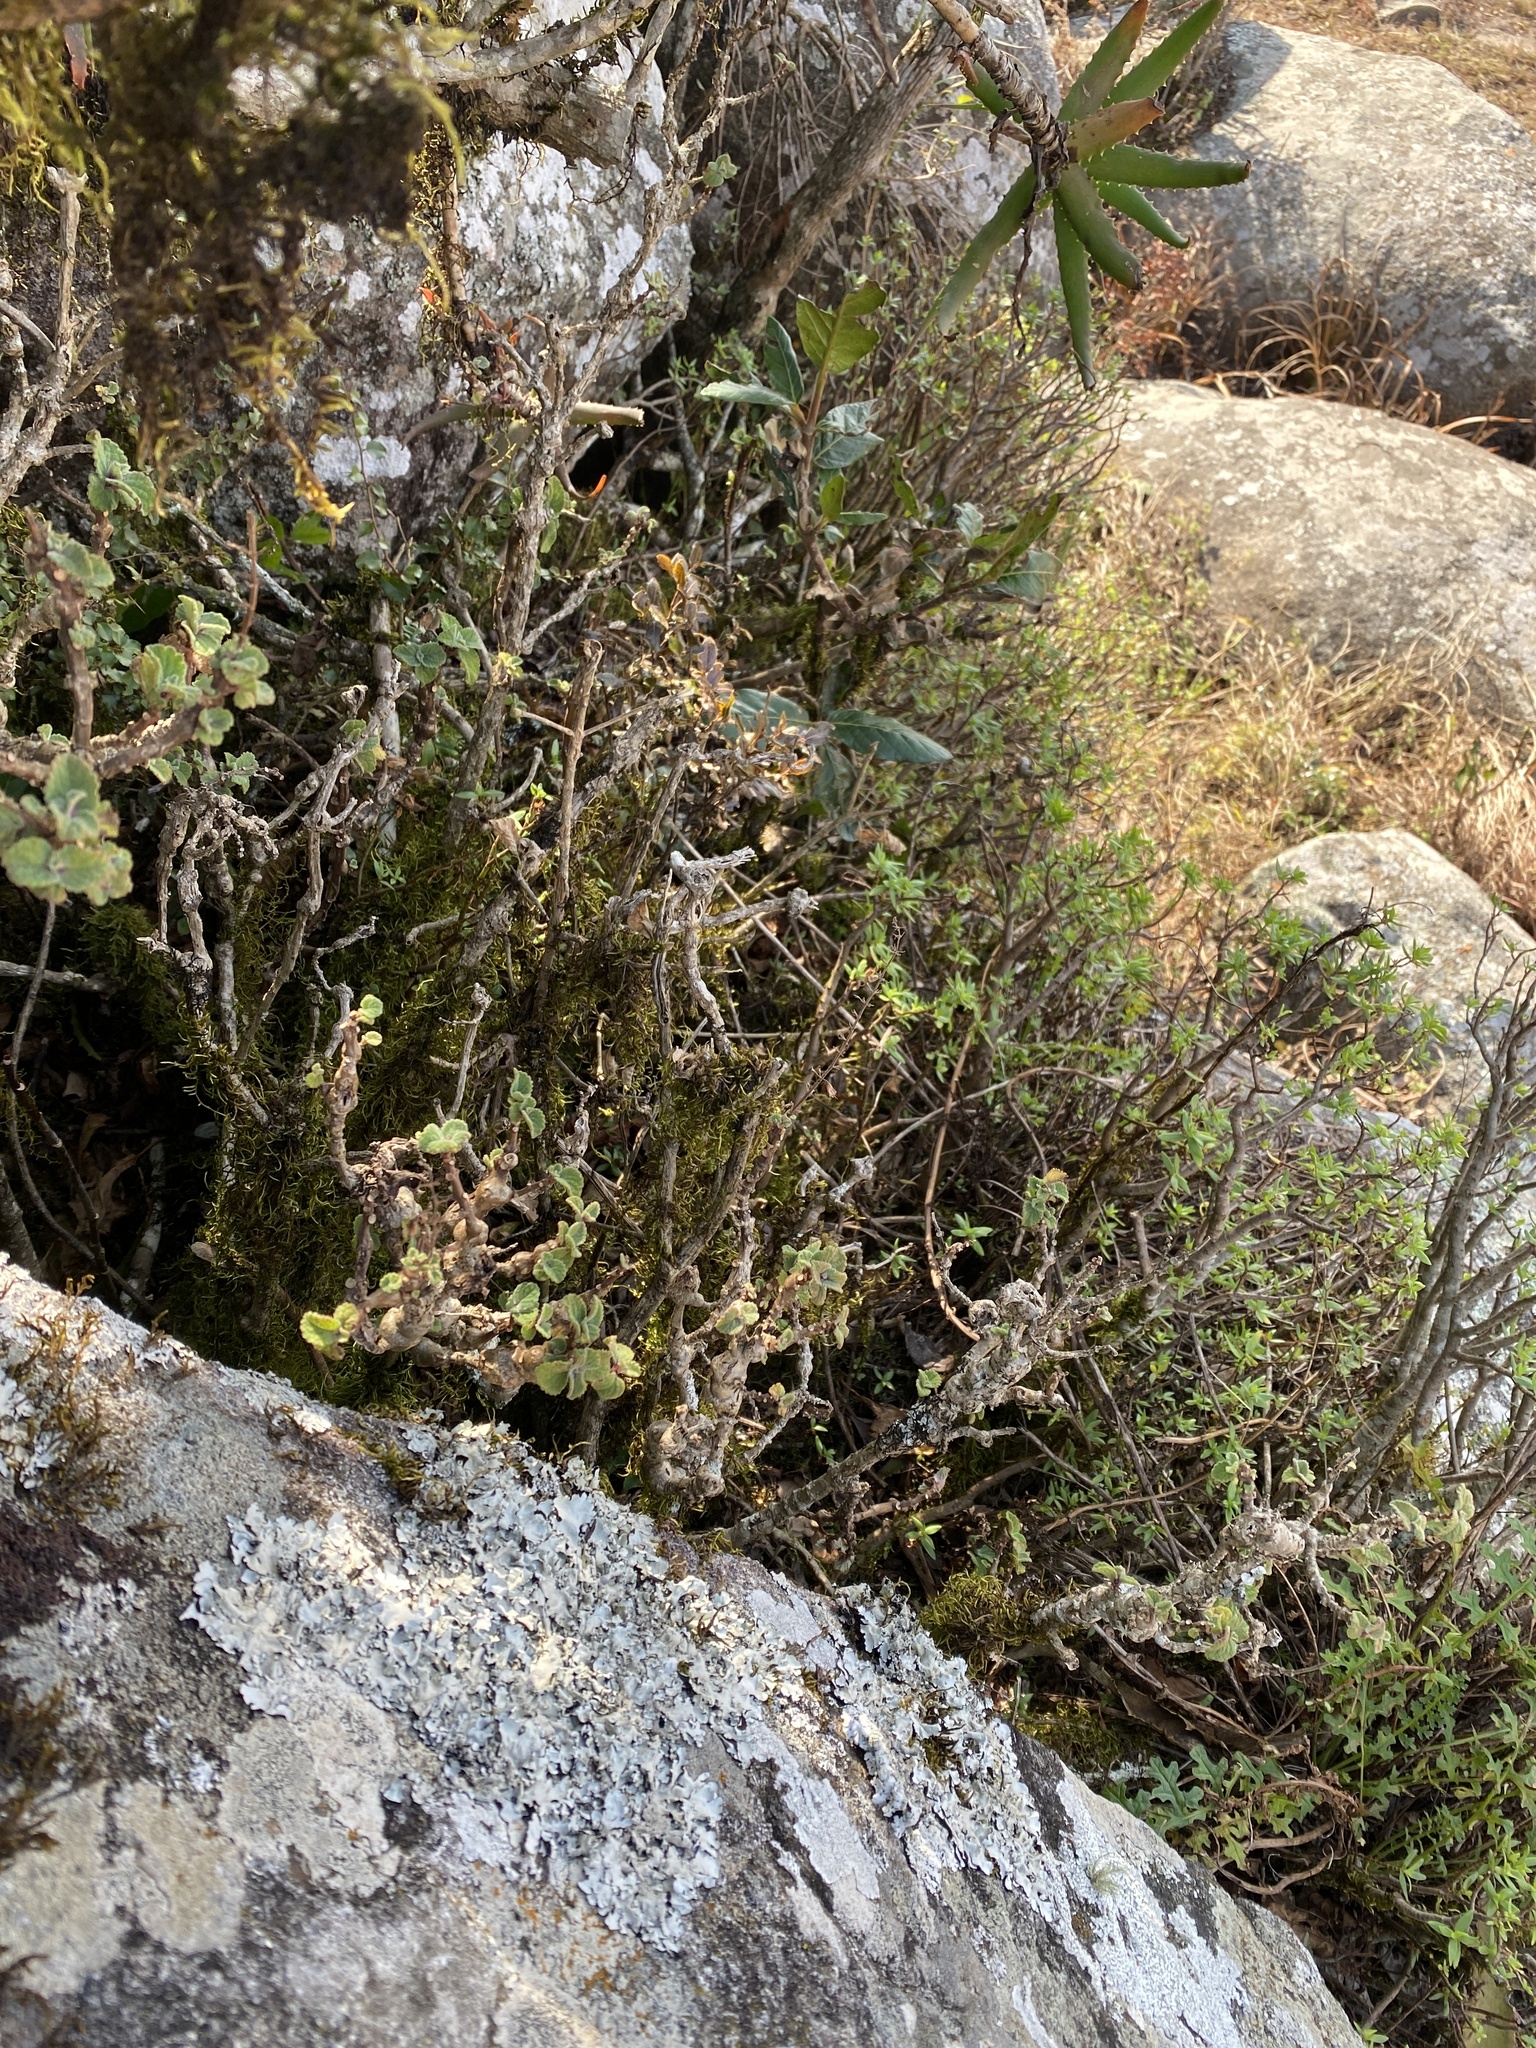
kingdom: Plantae
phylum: Tracheophyta
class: Magnoliopsida
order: Lamiales
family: Lamiaceae
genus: Plectranthus
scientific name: Plectranthus fruticosus
